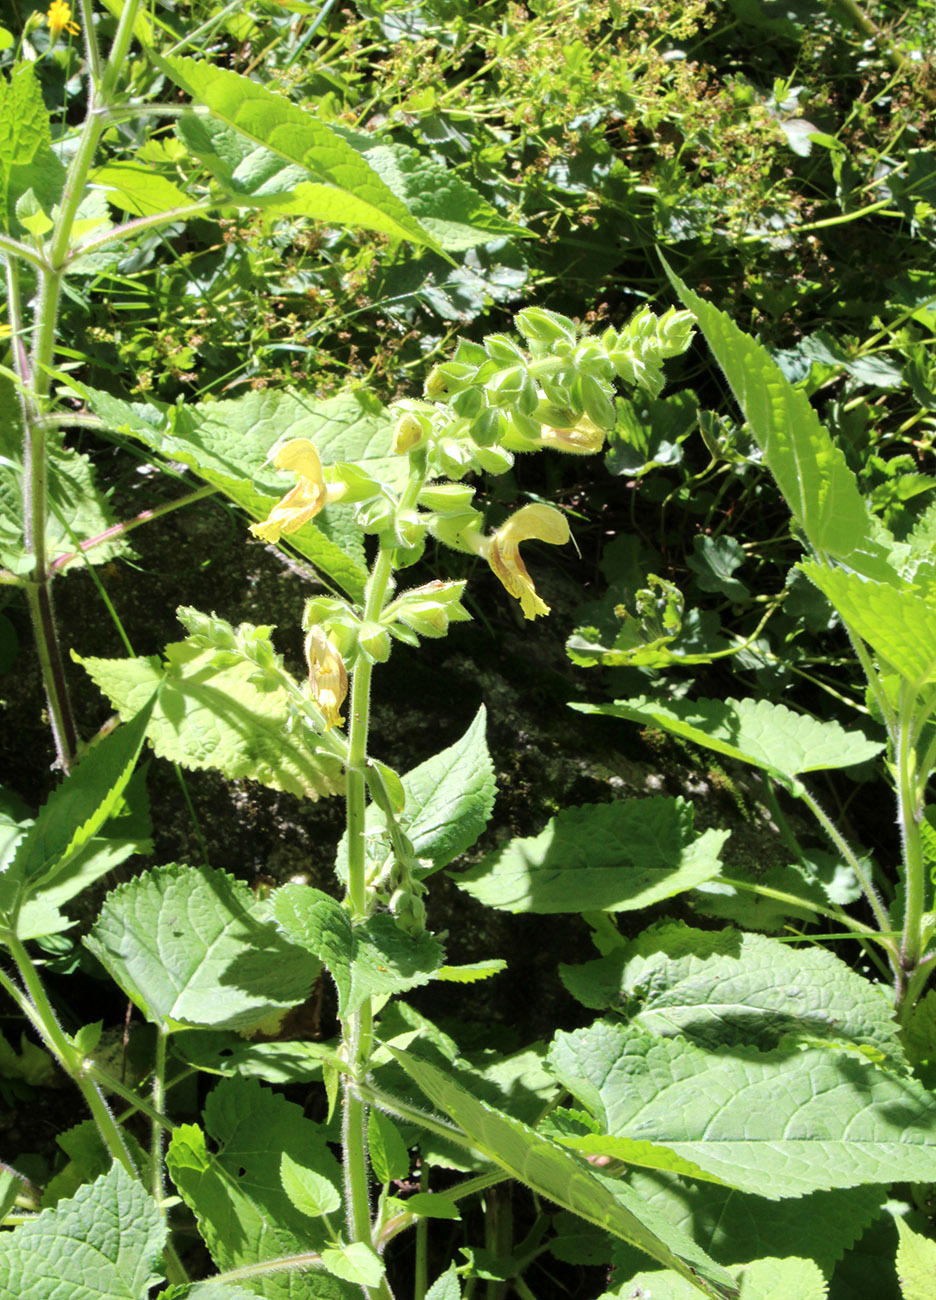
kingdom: Plantae
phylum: Tracheophyta
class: Magnoliopsida
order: Lamiales
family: Lamiaceae
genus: Salvia
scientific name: Salvia glutinosa
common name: Sticky clary
